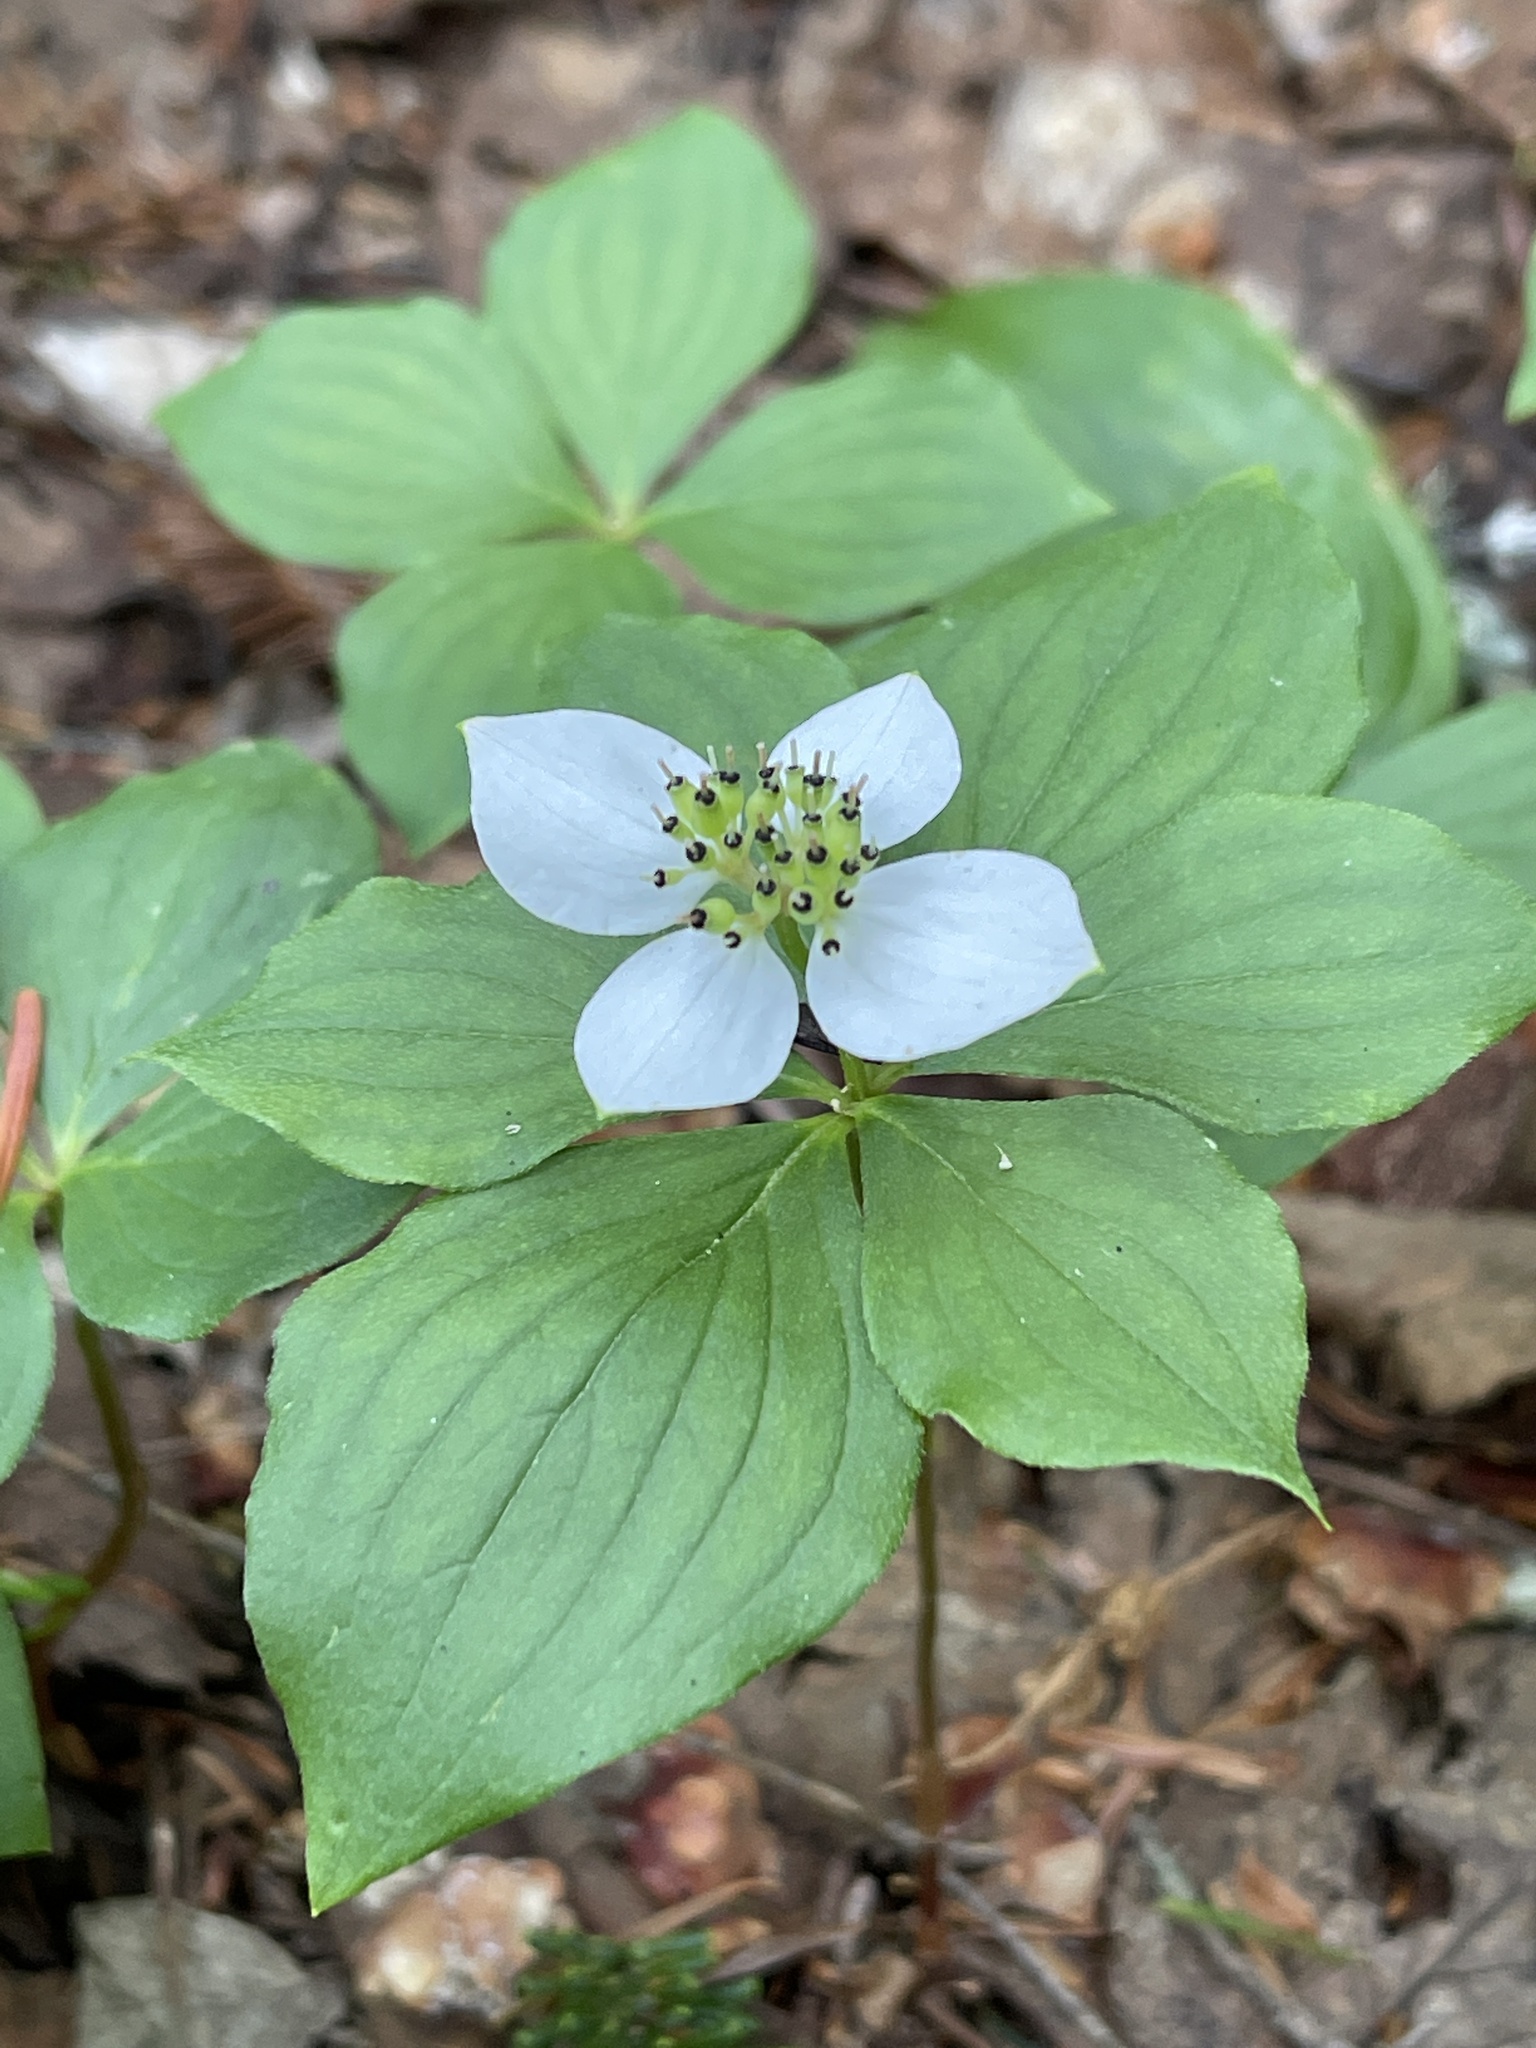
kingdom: Plantae
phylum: Tracheophyta
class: Magnoliopsida
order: Cornales
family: Cornaceae
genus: Cornus
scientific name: Cornus canadensis
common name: Creeping dogwood
